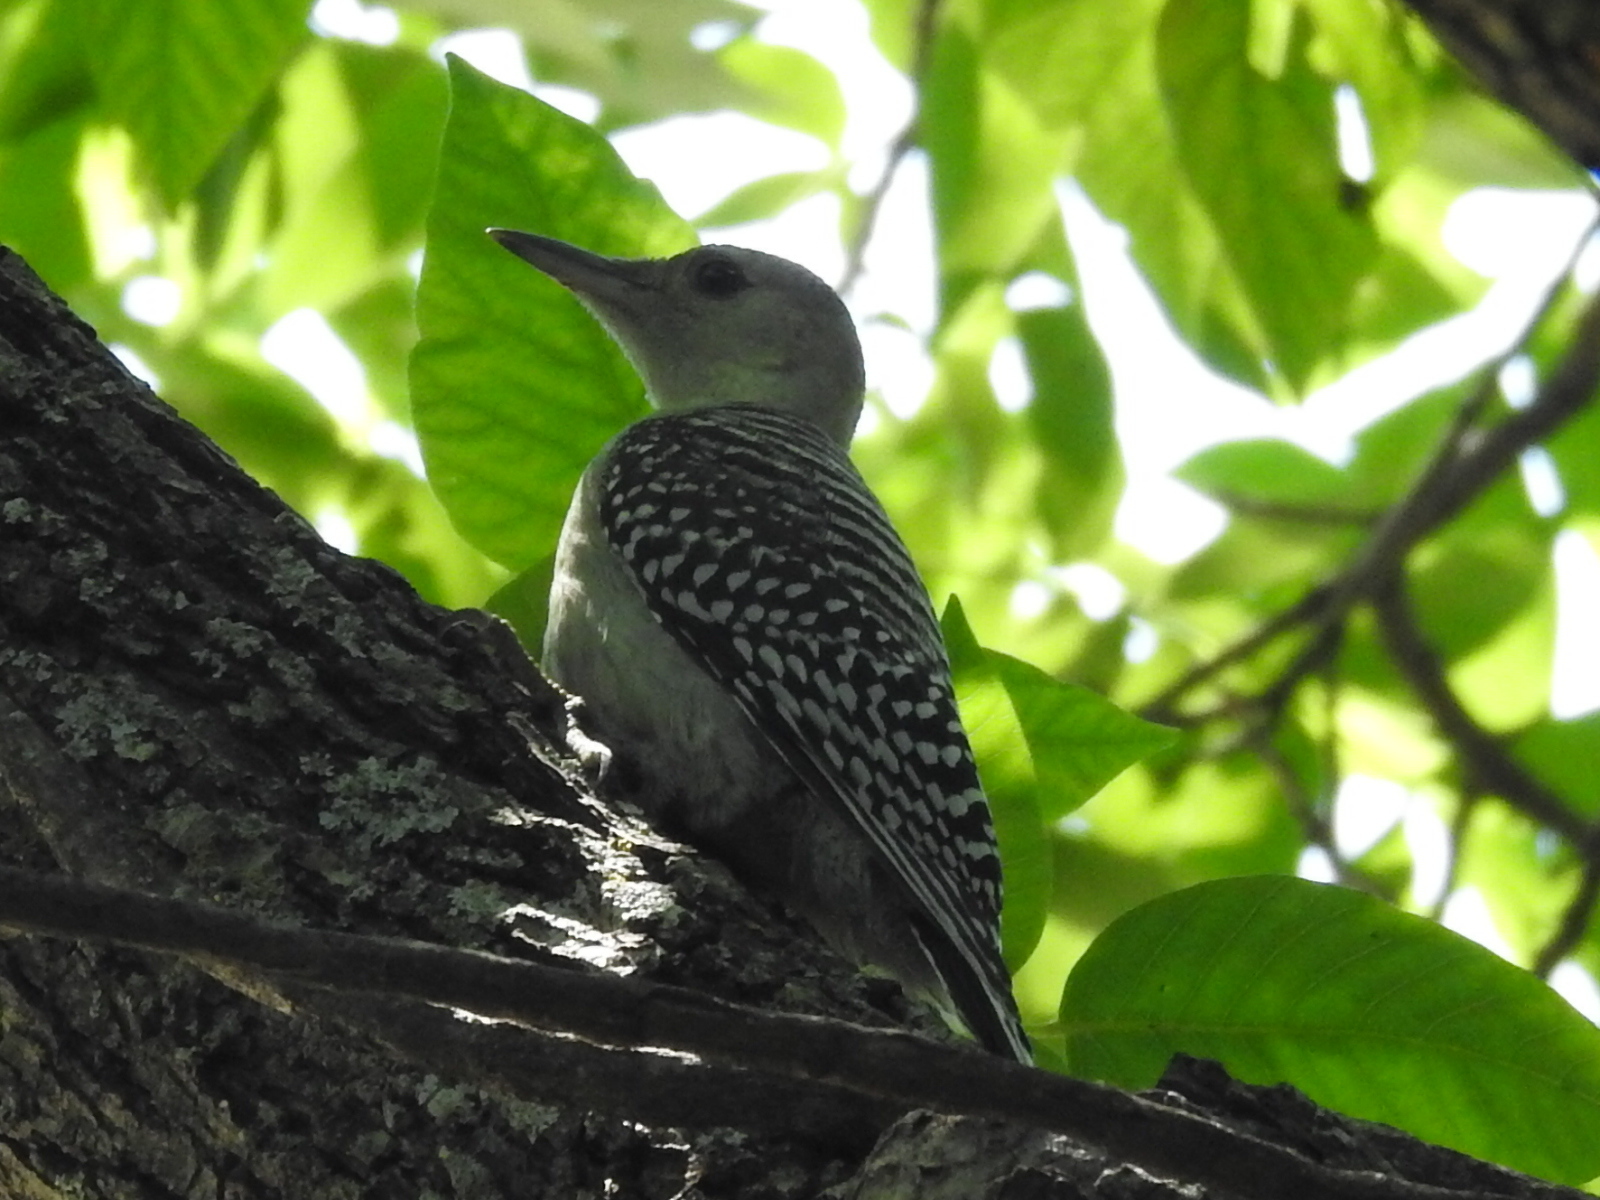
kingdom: Animalia
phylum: Chordata
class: Aves
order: Piciformes
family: Picidae
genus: Melanerpes
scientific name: Melanerpes carolinus
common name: Red-bellied woodpecker
